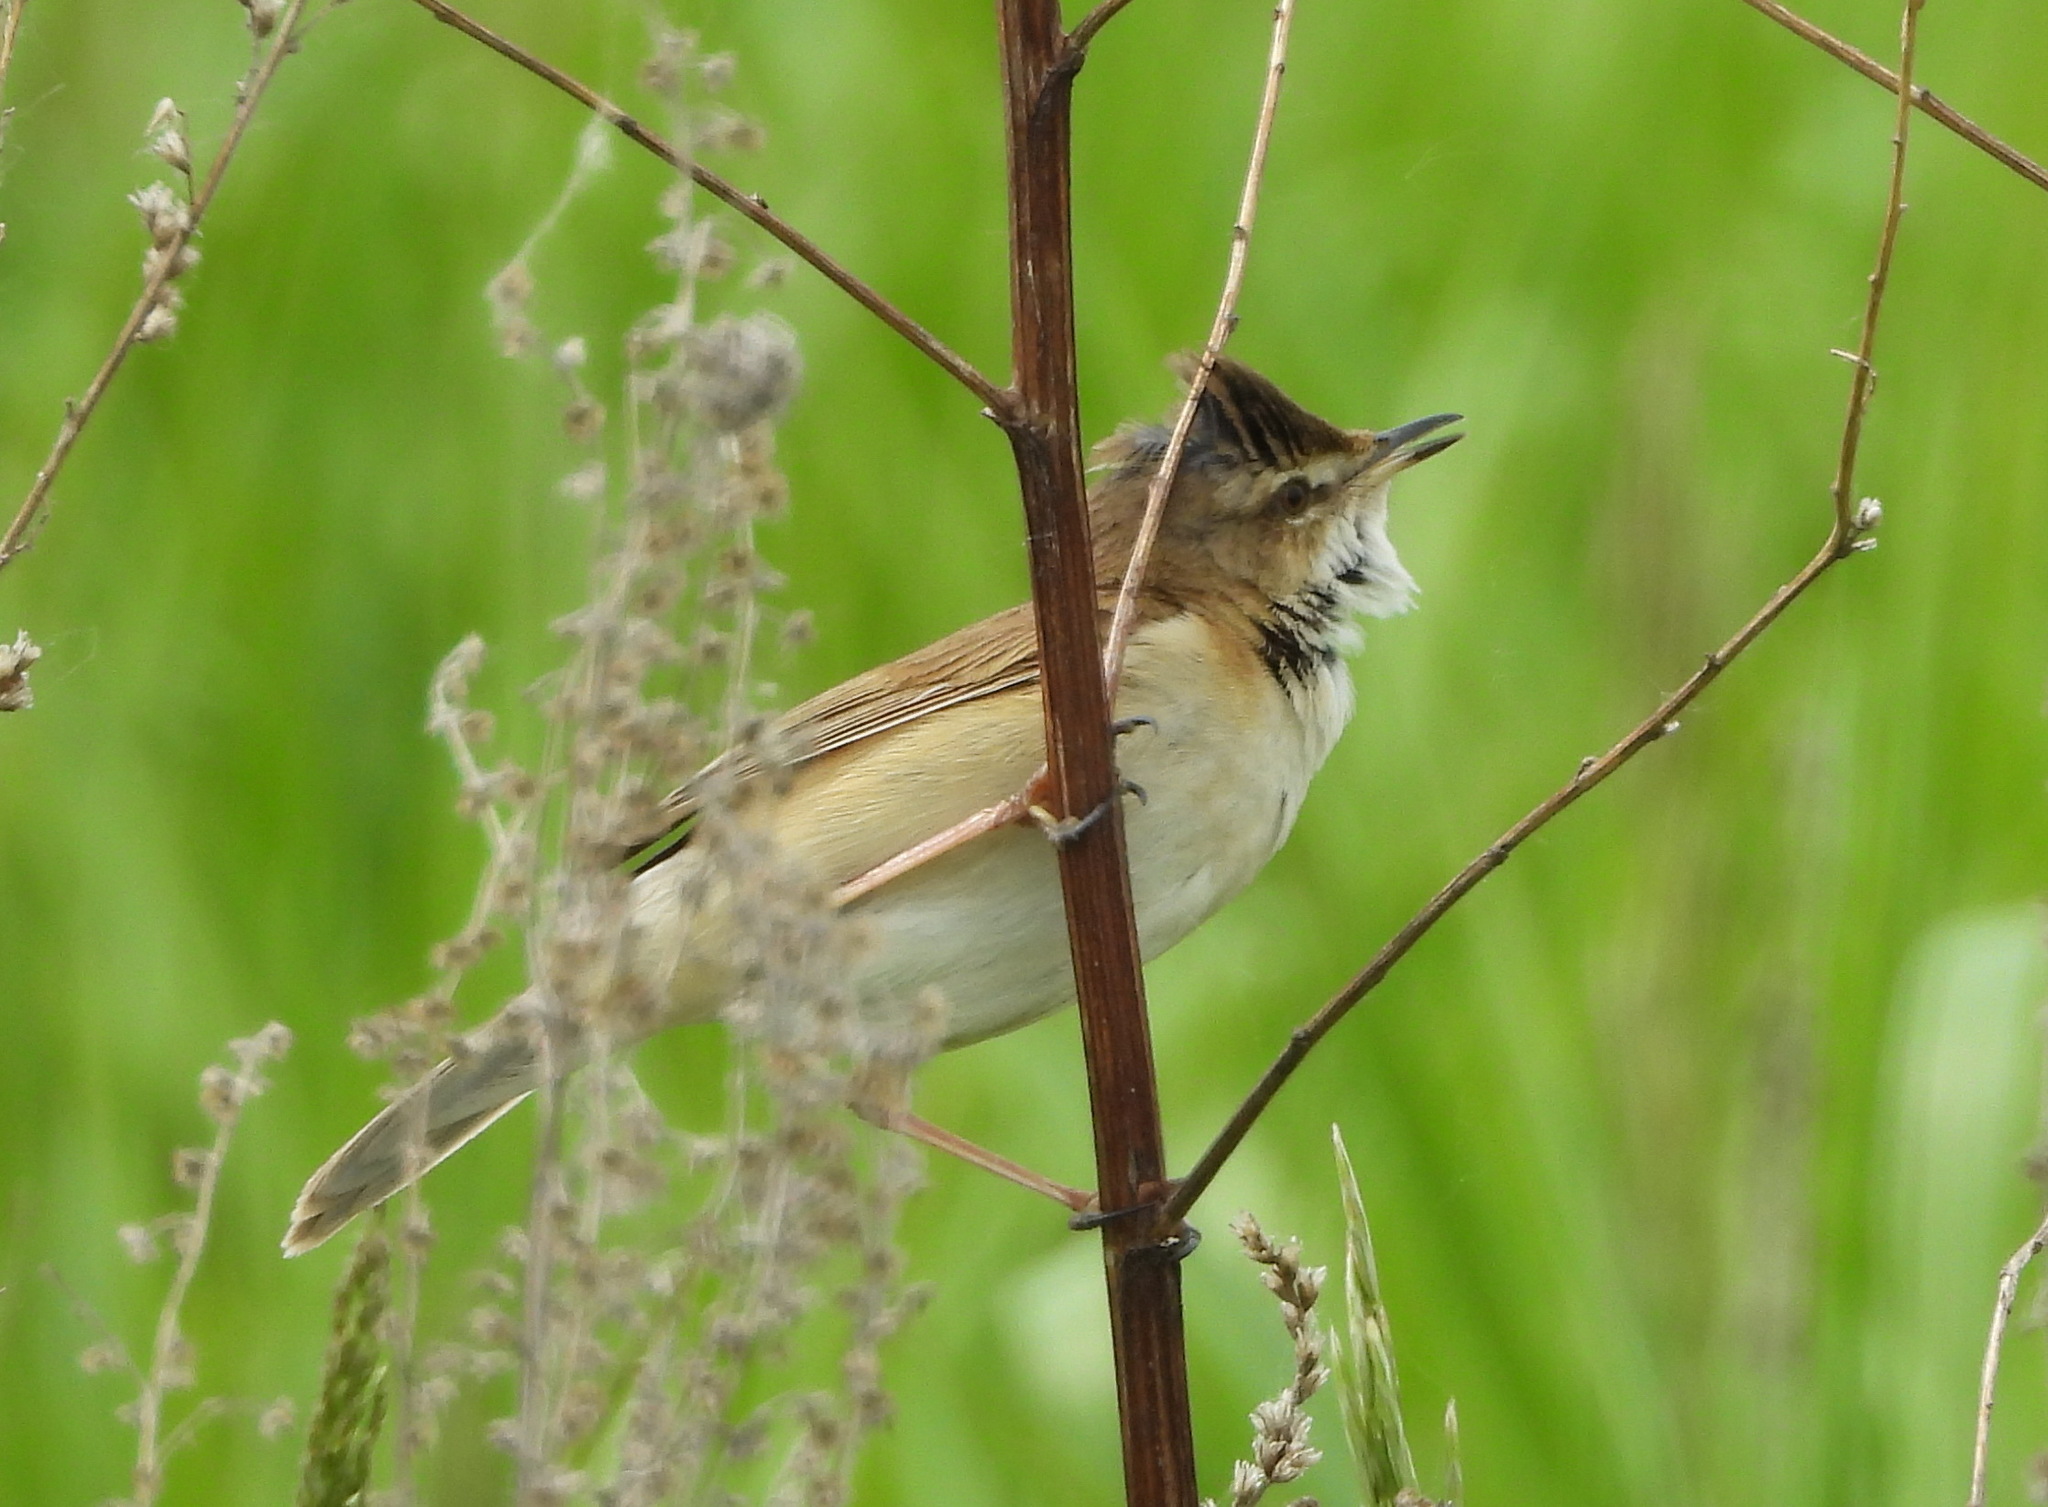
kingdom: Animalia
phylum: Chordata
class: Aves
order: Passeriformes
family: Acrocephalidae
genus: Acrocephalus
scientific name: Acrocephalus agricola
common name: Paddyfield warbler
